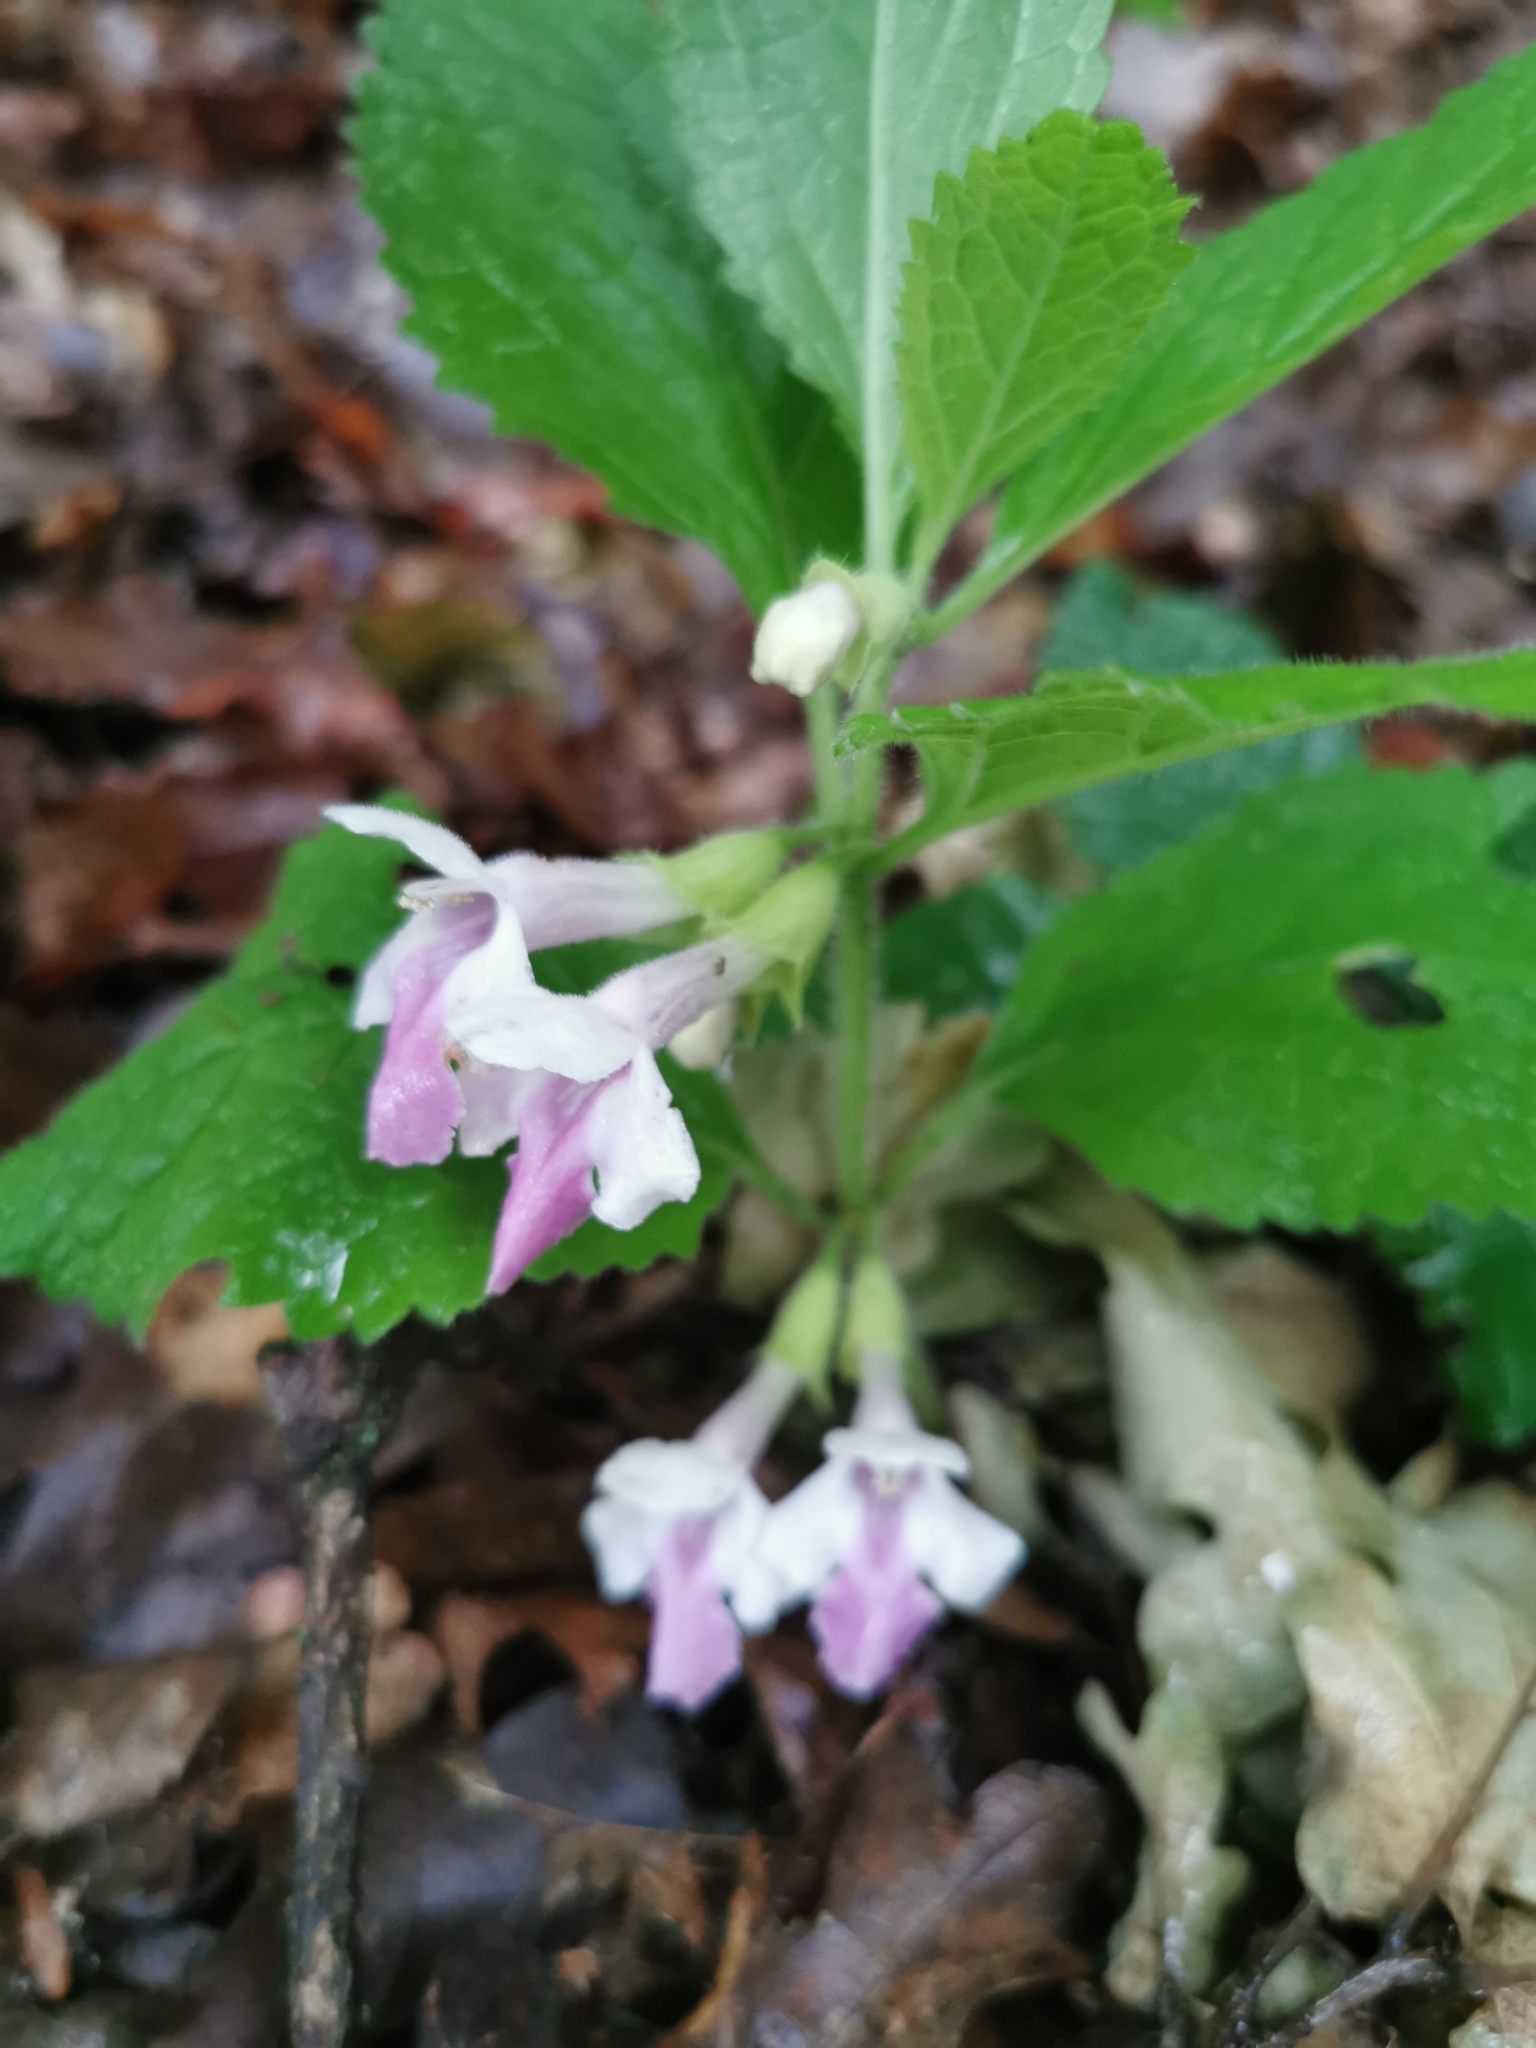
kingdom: Plantae
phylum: Tracheophyta
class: Magnoliopsida
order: Lamiales
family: Lamiaceae
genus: Melittis
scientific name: Melittis melissophyllum
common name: Bastard balm
